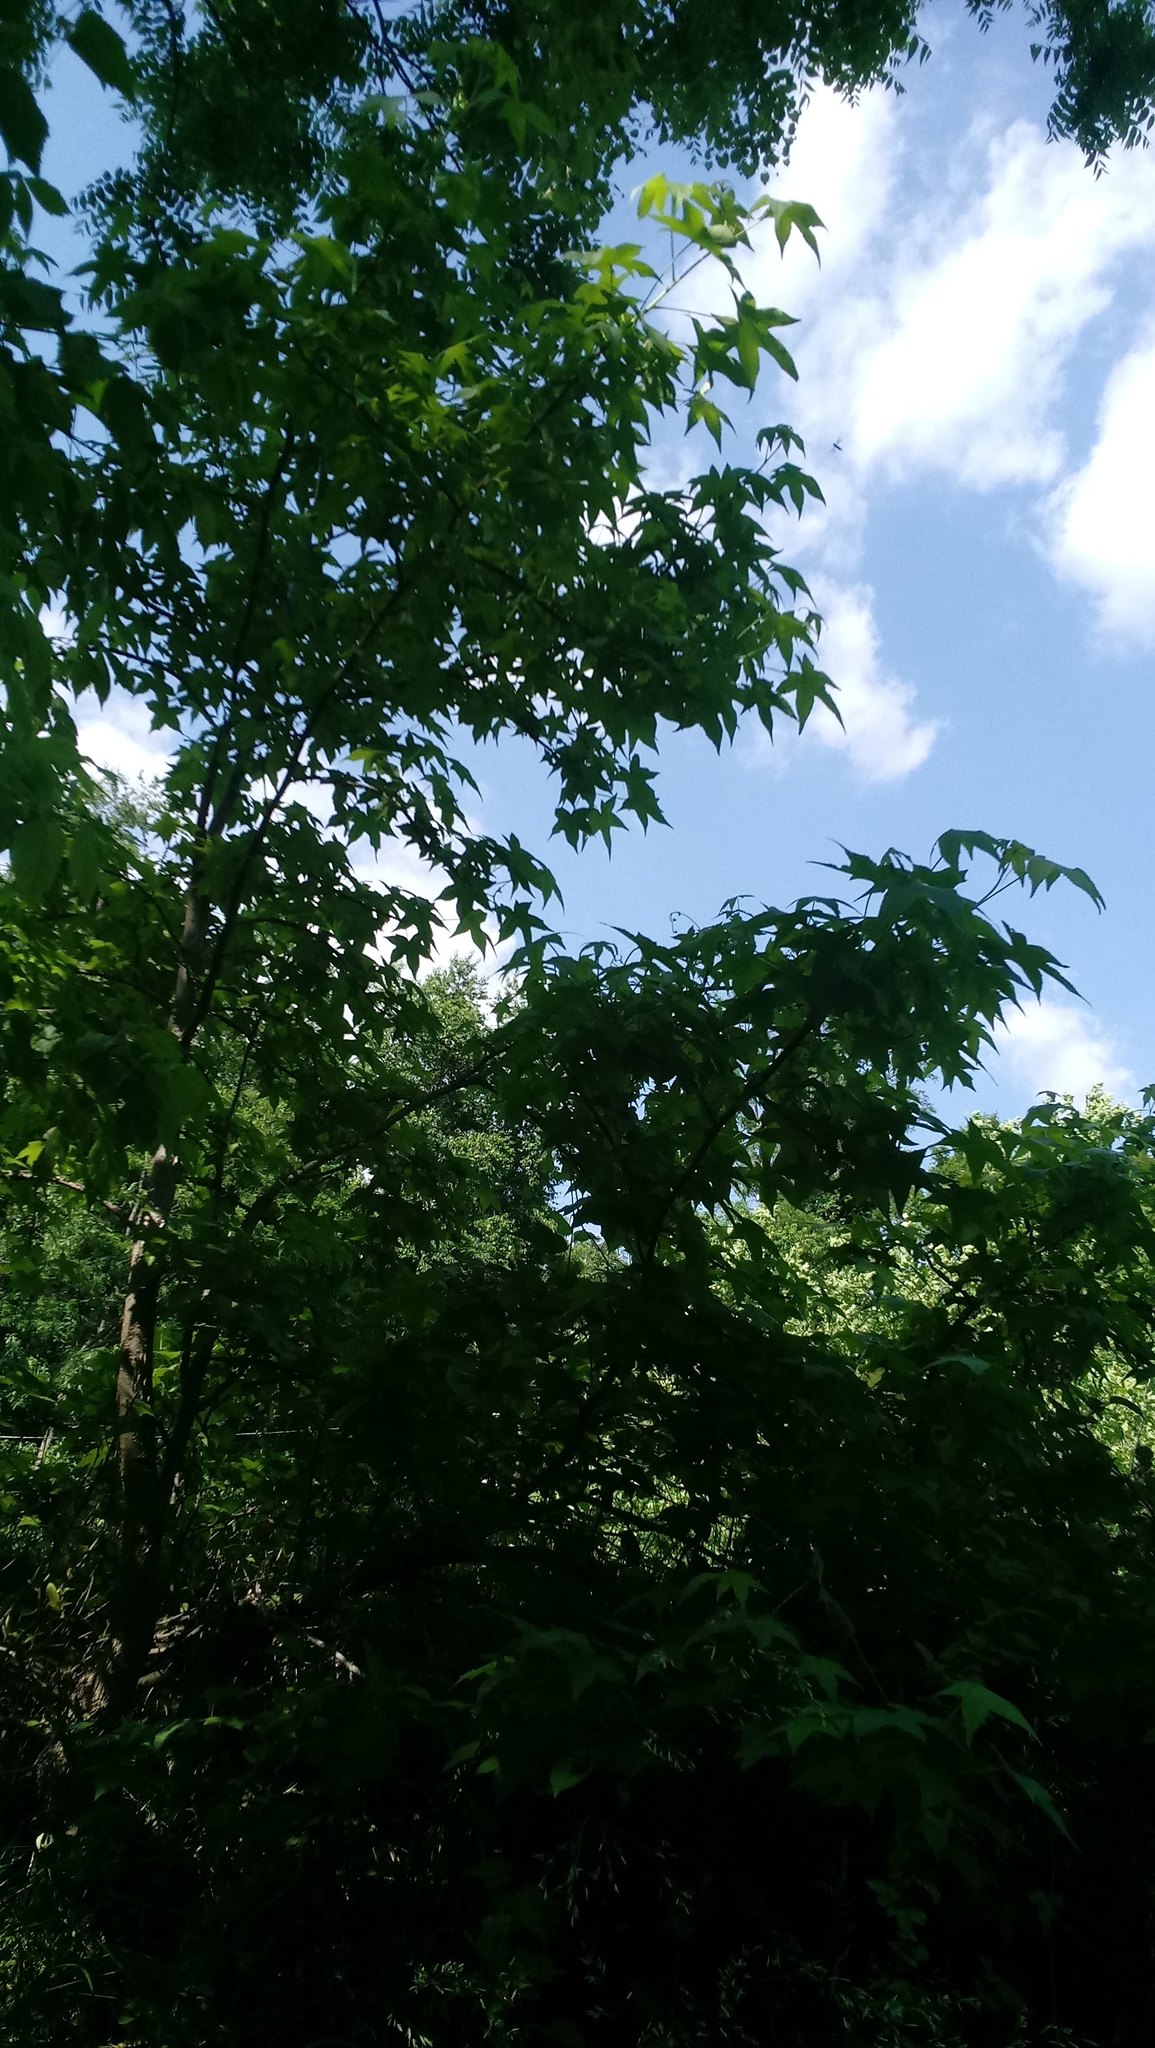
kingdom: Plantae
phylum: Tracheophyta
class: Magnoliopsida
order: Saxifragales
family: Altingiaceae
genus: Liquidambar
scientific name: Liquidambar styraciflua
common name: Sweet gum
